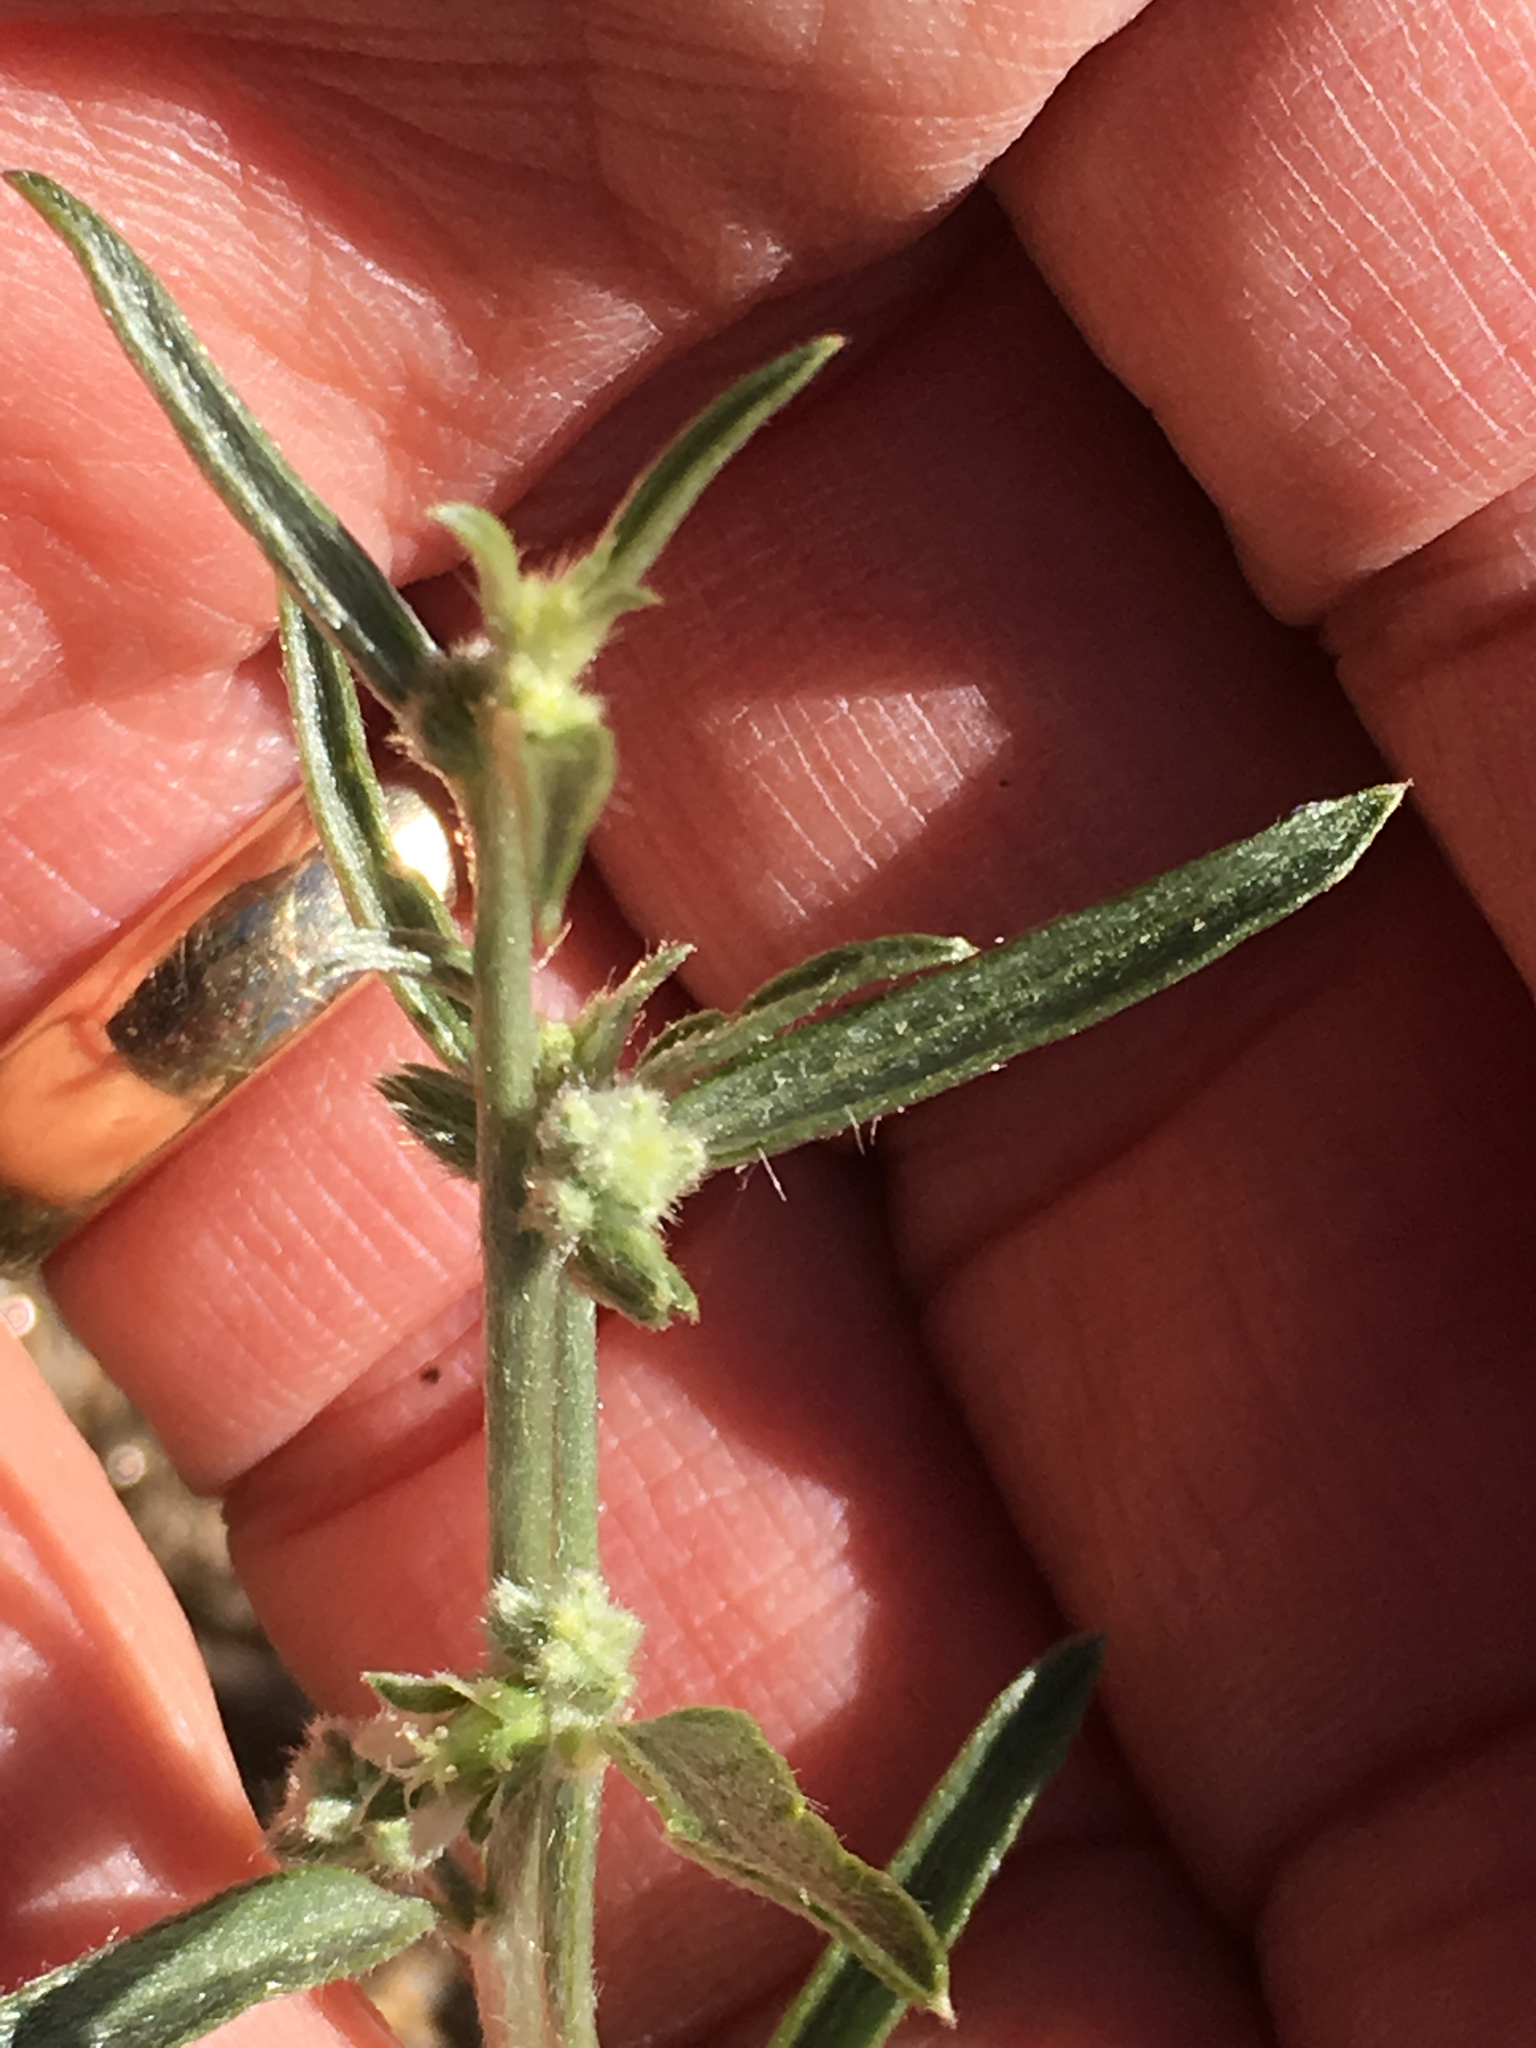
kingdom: Plantae
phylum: Tracheophyta
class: Magnoliopsida
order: Malpighiales
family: Euphorbiaceae
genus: Ditaxis
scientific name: Ditaxis lanceolata
